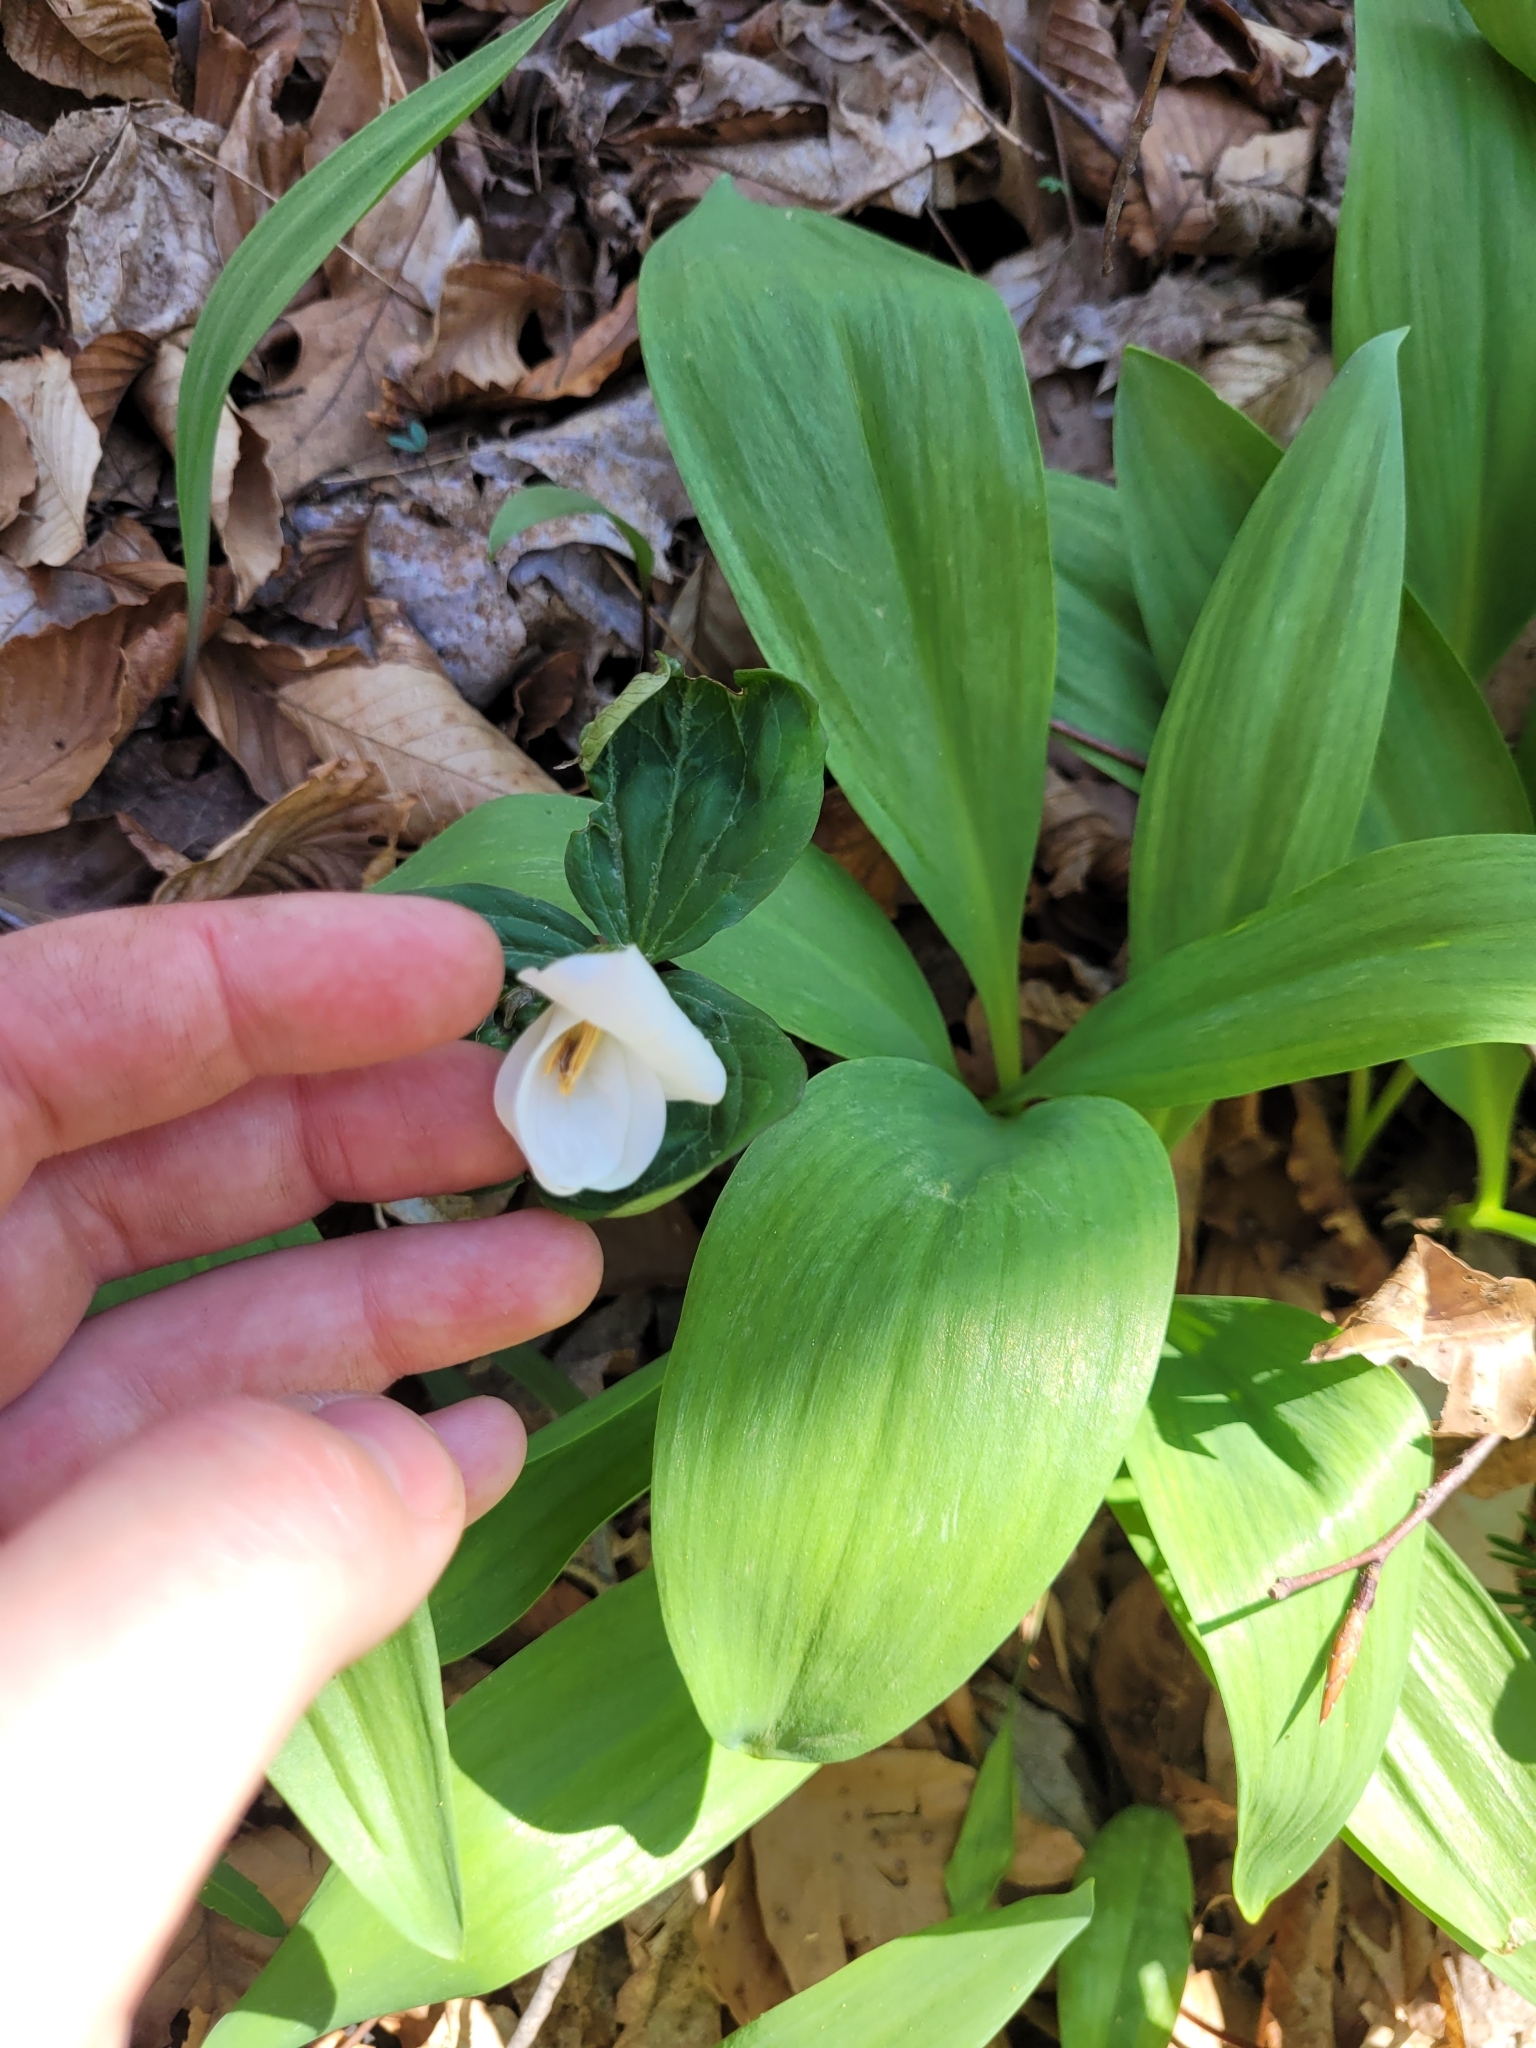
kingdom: Plantae
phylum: Tracheophyta
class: Liliopsida
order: Liliales
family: Melanthiaceae
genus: Trillium
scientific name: Trillium grandiflorum
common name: Great white trillium
